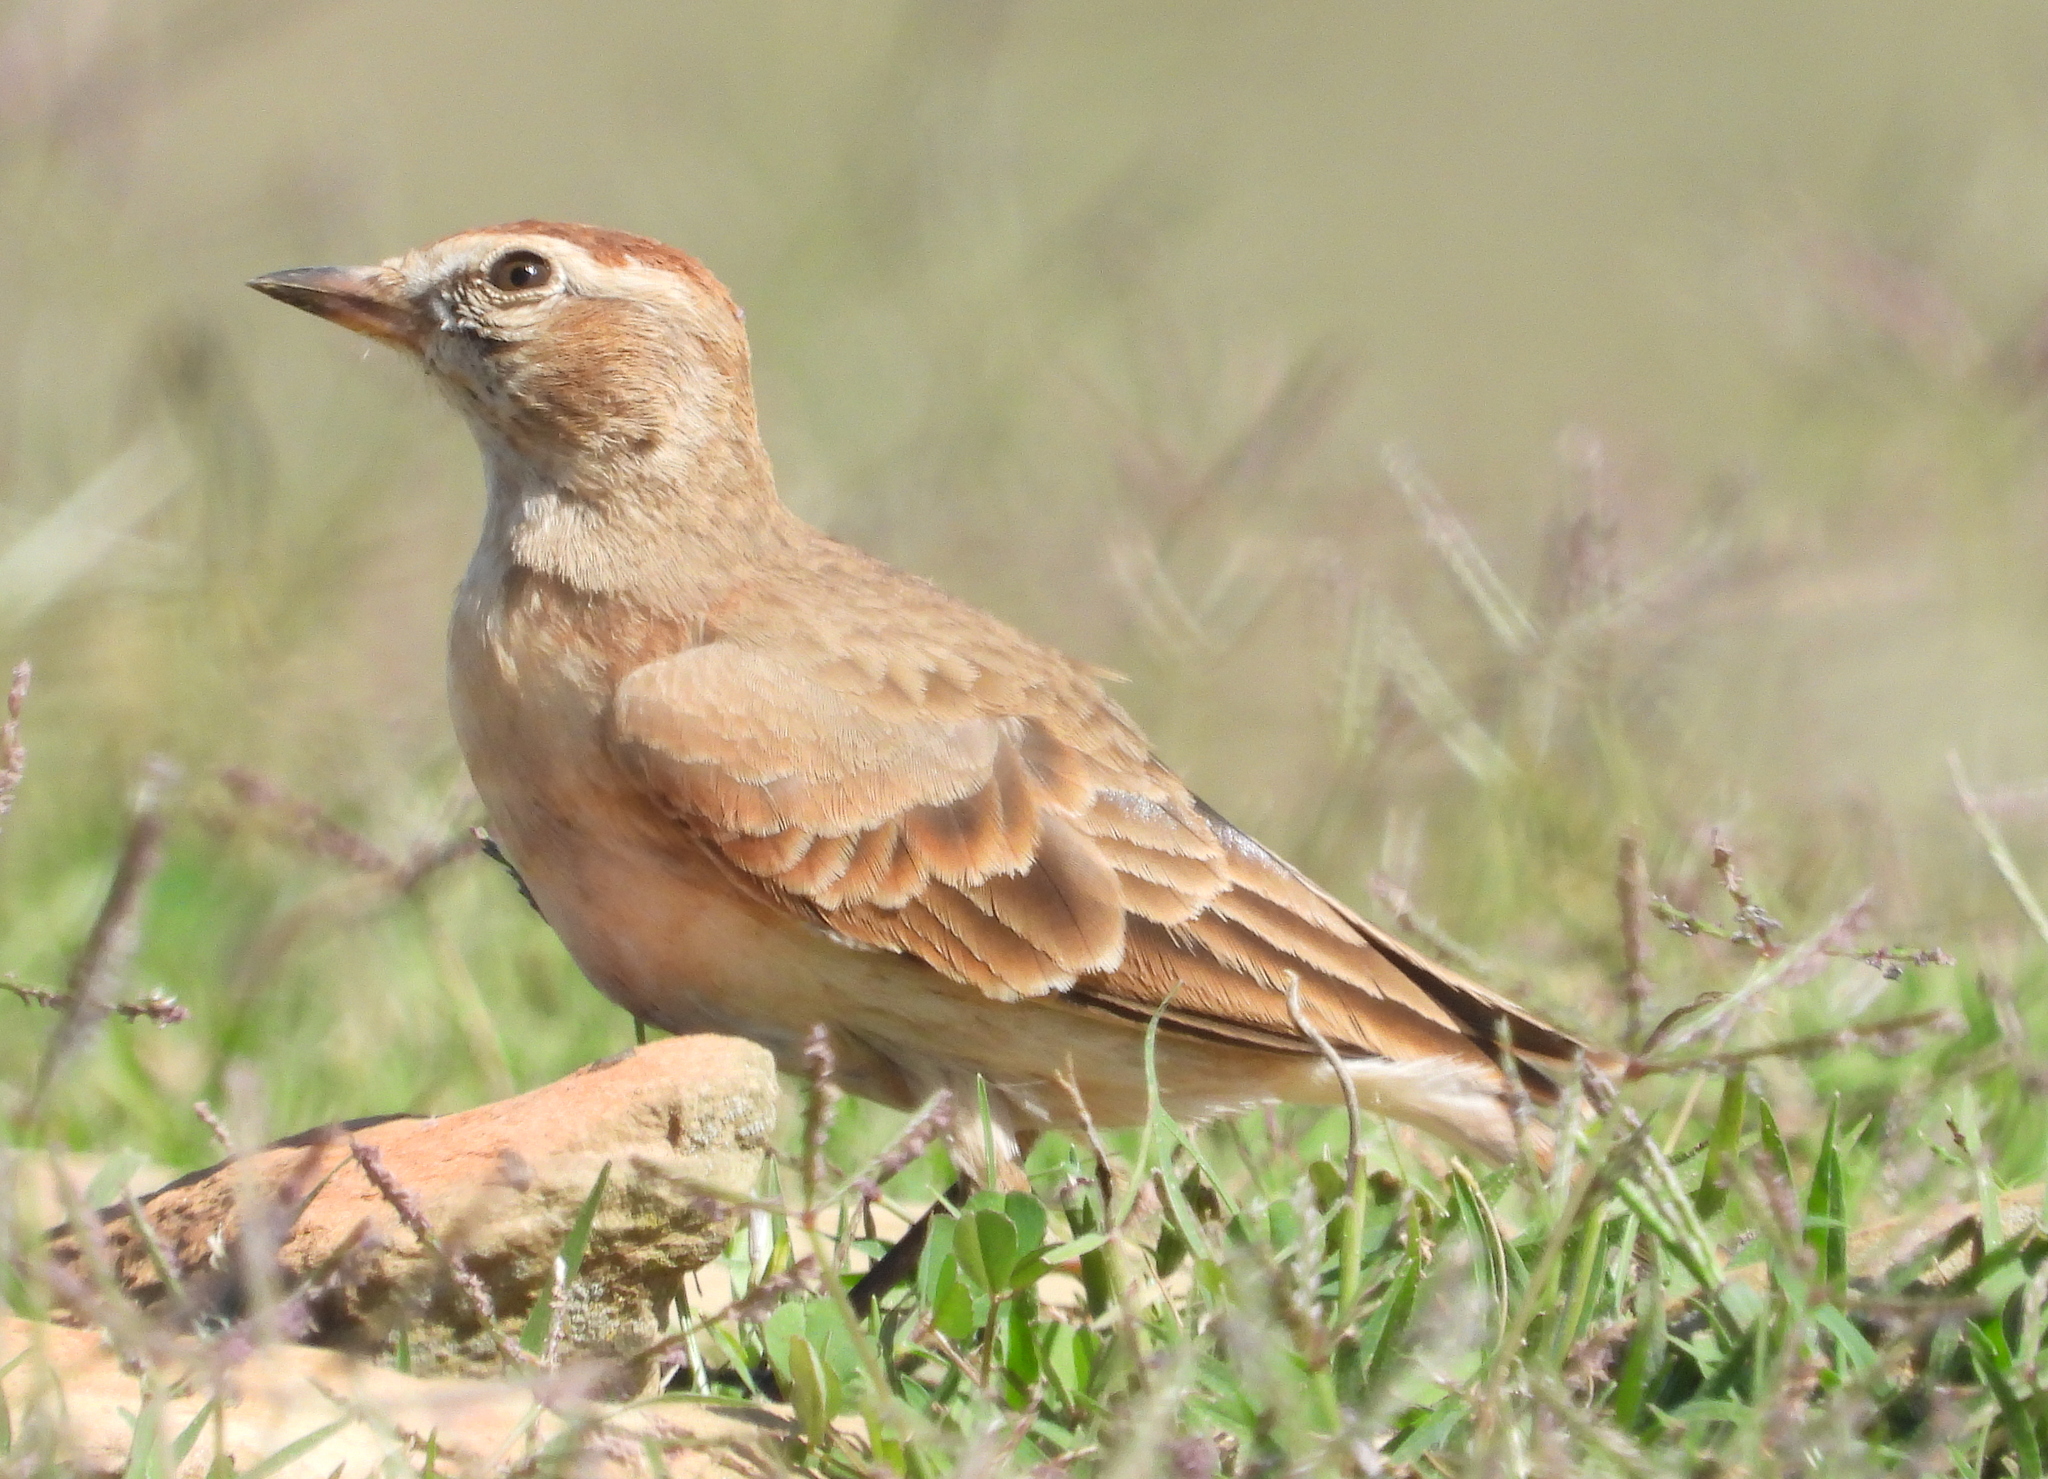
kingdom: Animalia
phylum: Chordata
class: Aves
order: Passeriformes
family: Alaudidae
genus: Calandrella
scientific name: Calandrella cinerea
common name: Red-capped lark
